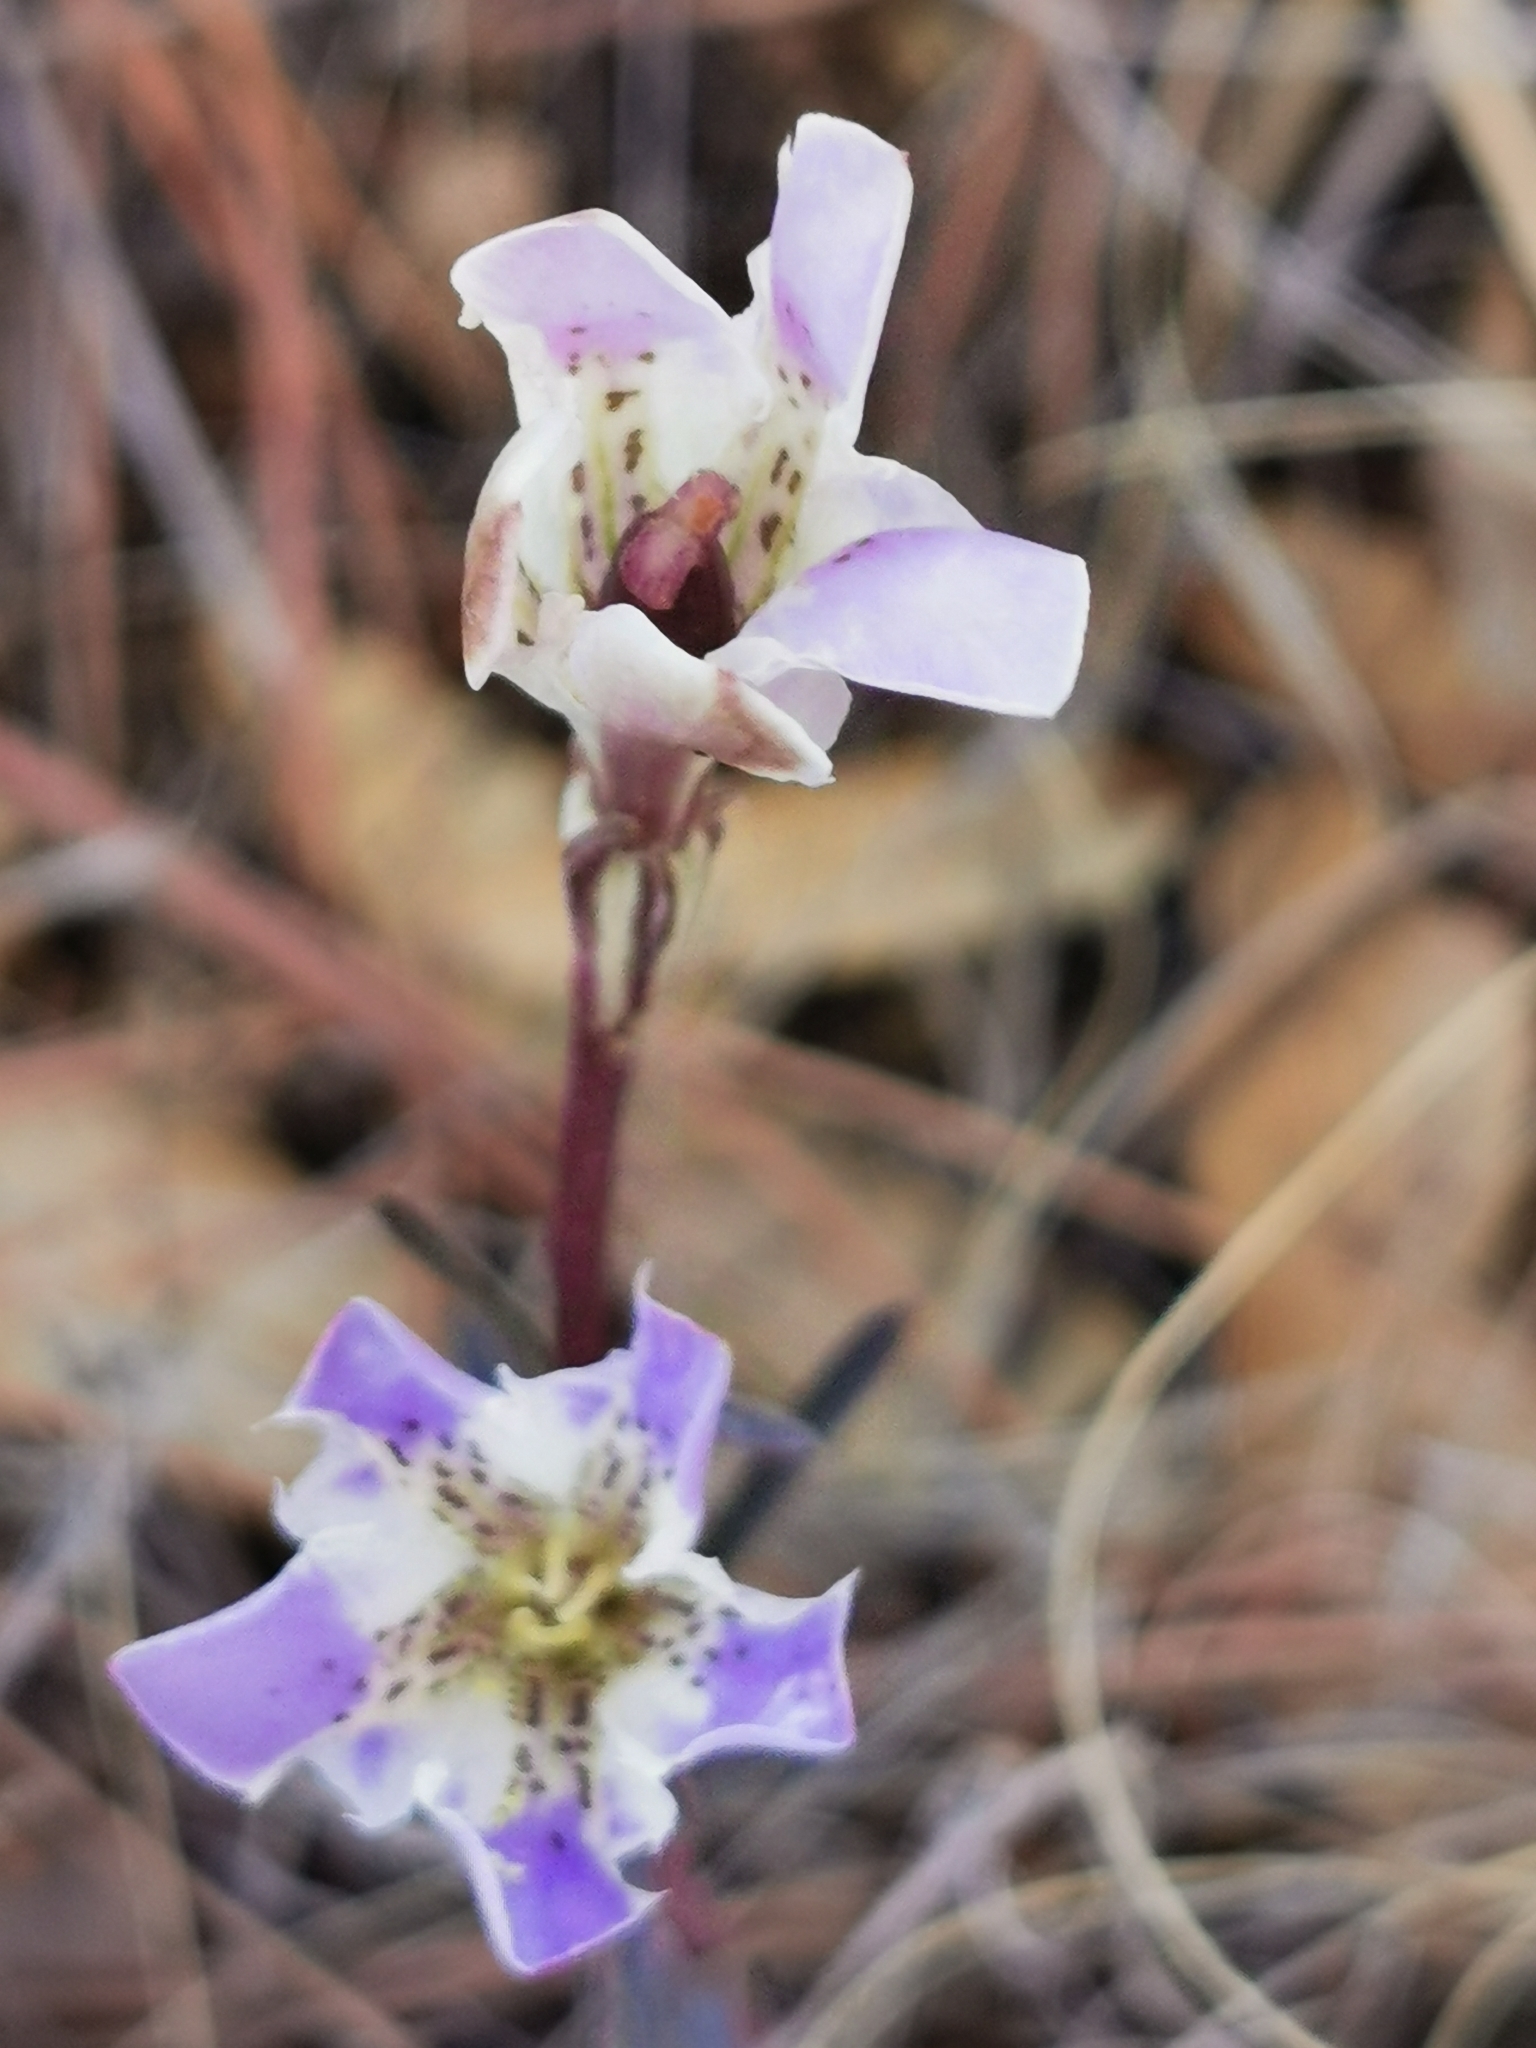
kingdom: Plantae
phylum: Tracheophyta
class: Magnoliopsida
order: Gentianales
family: Gentianaceae
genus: Gentiana
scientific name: Gentiana hooperi
